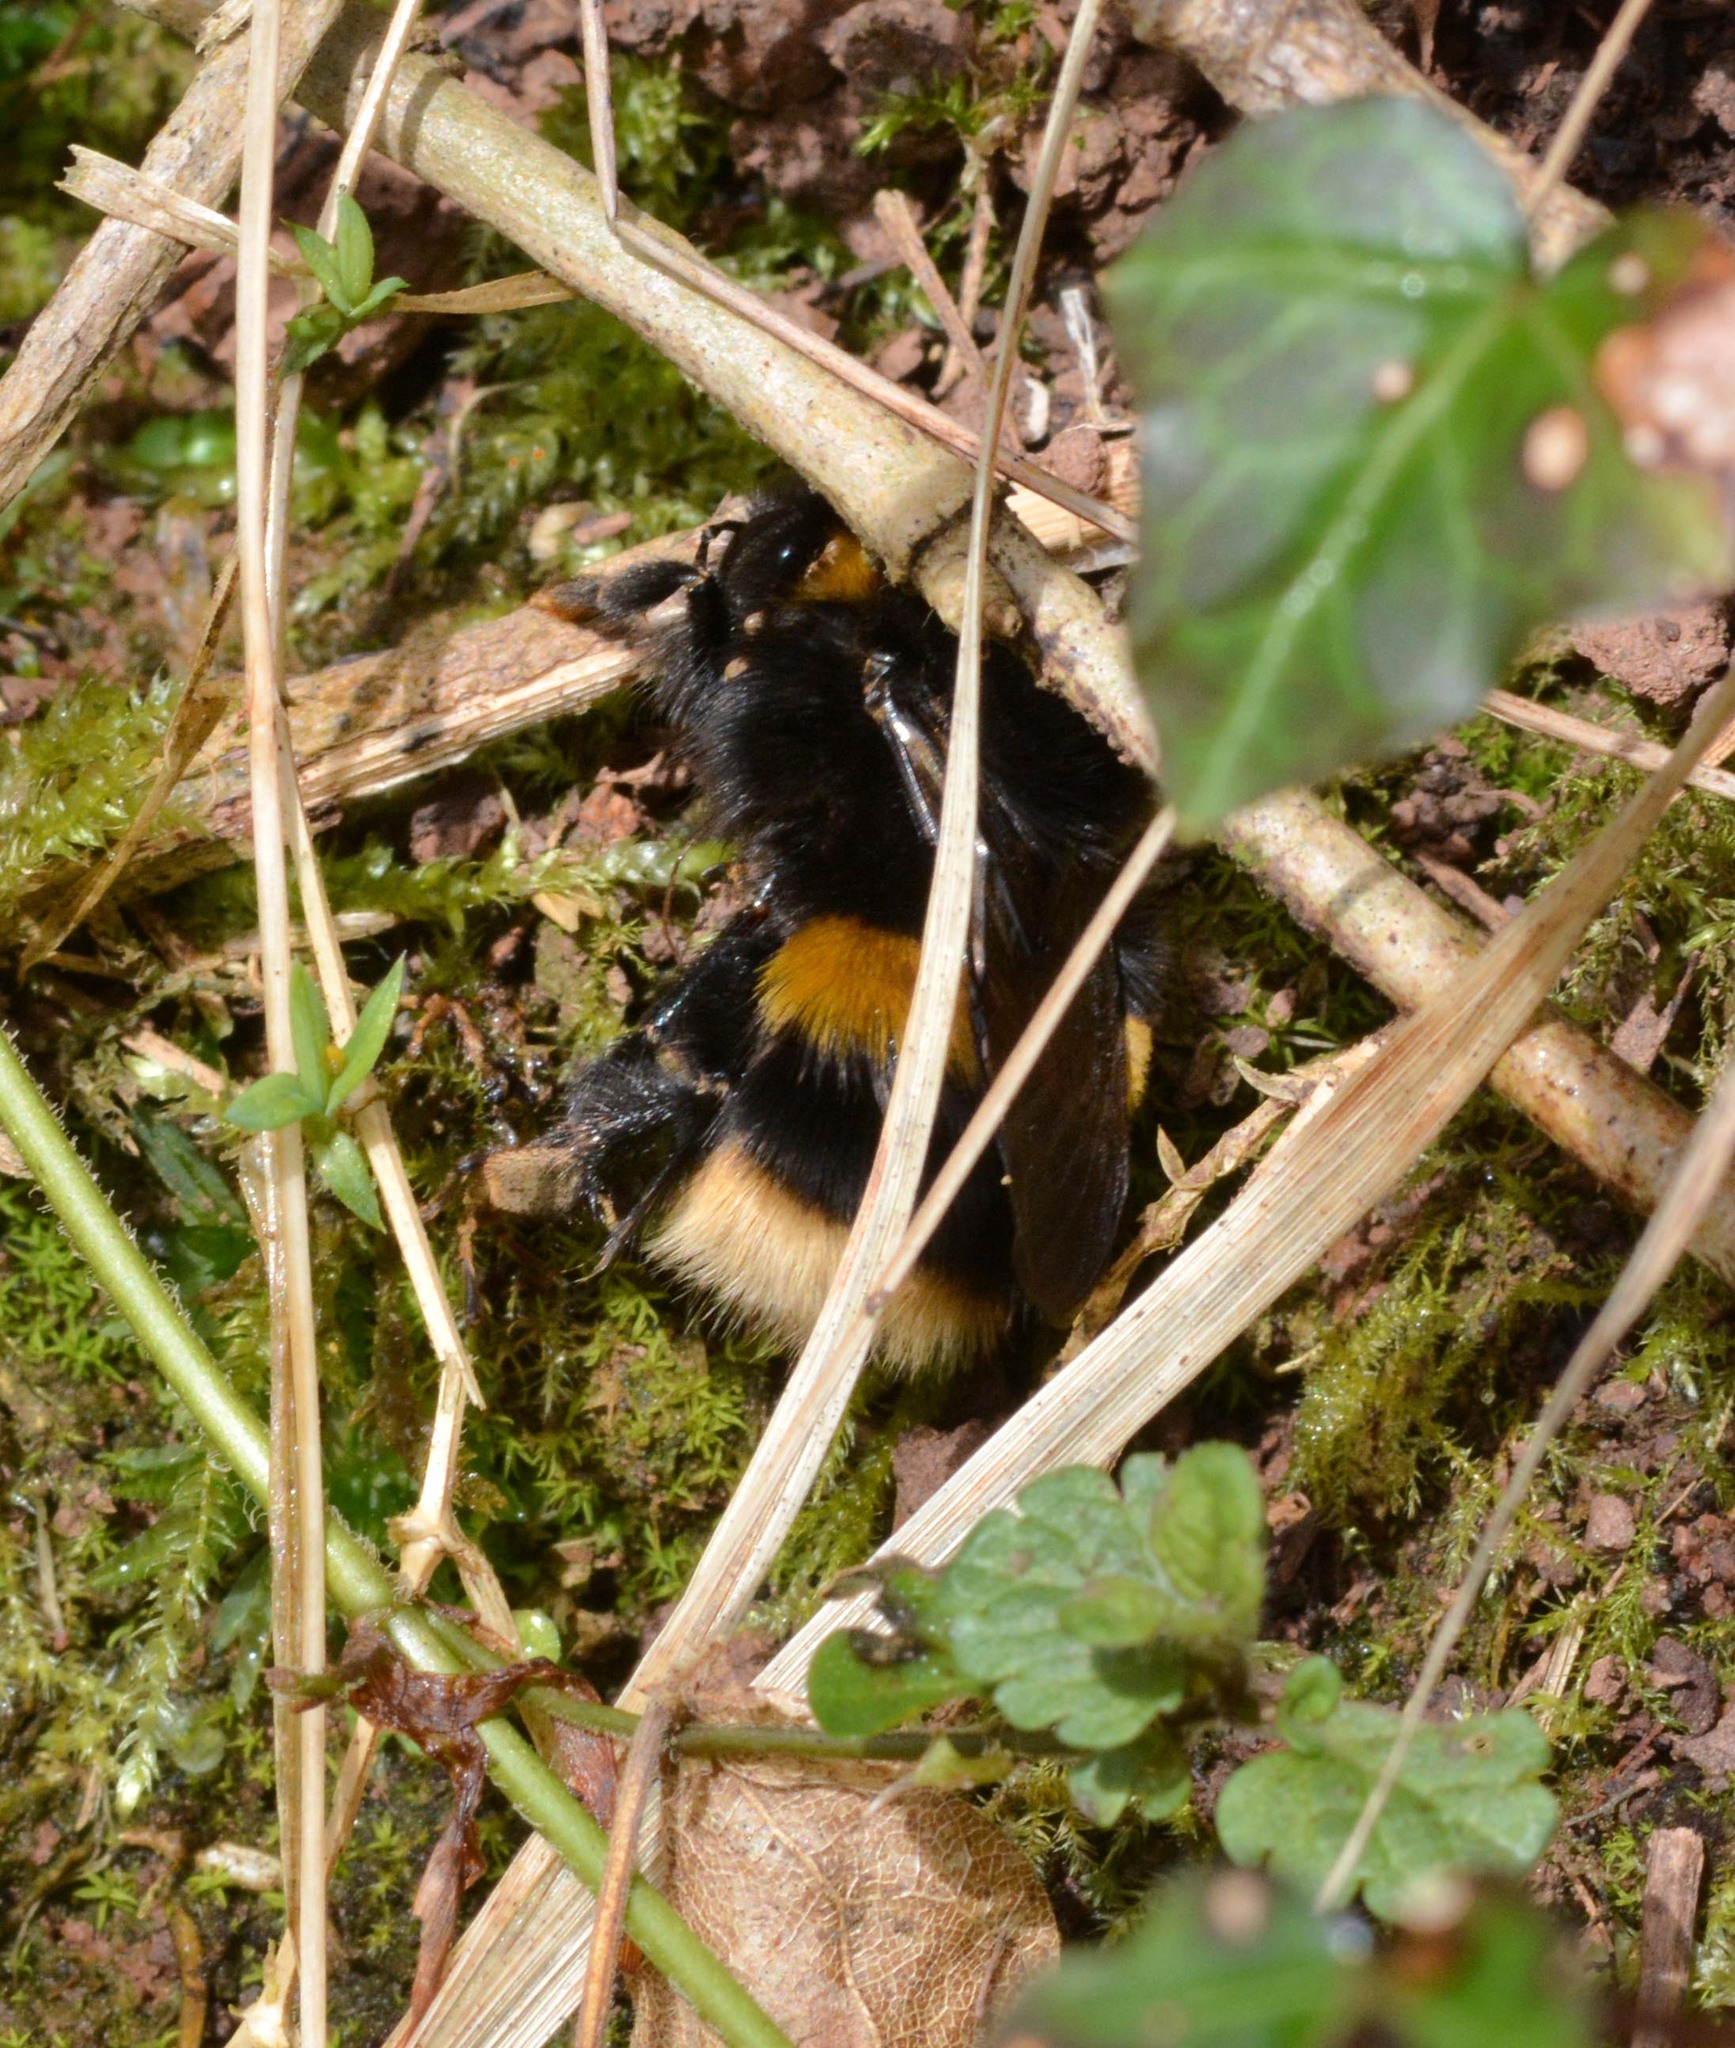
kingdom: Animalia
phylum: Arthropoda
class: Insecta
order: Hymenoptera
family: Apidae
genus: Bombus
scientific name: Bombus terrestris
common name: Buff-tailed bumblebee
